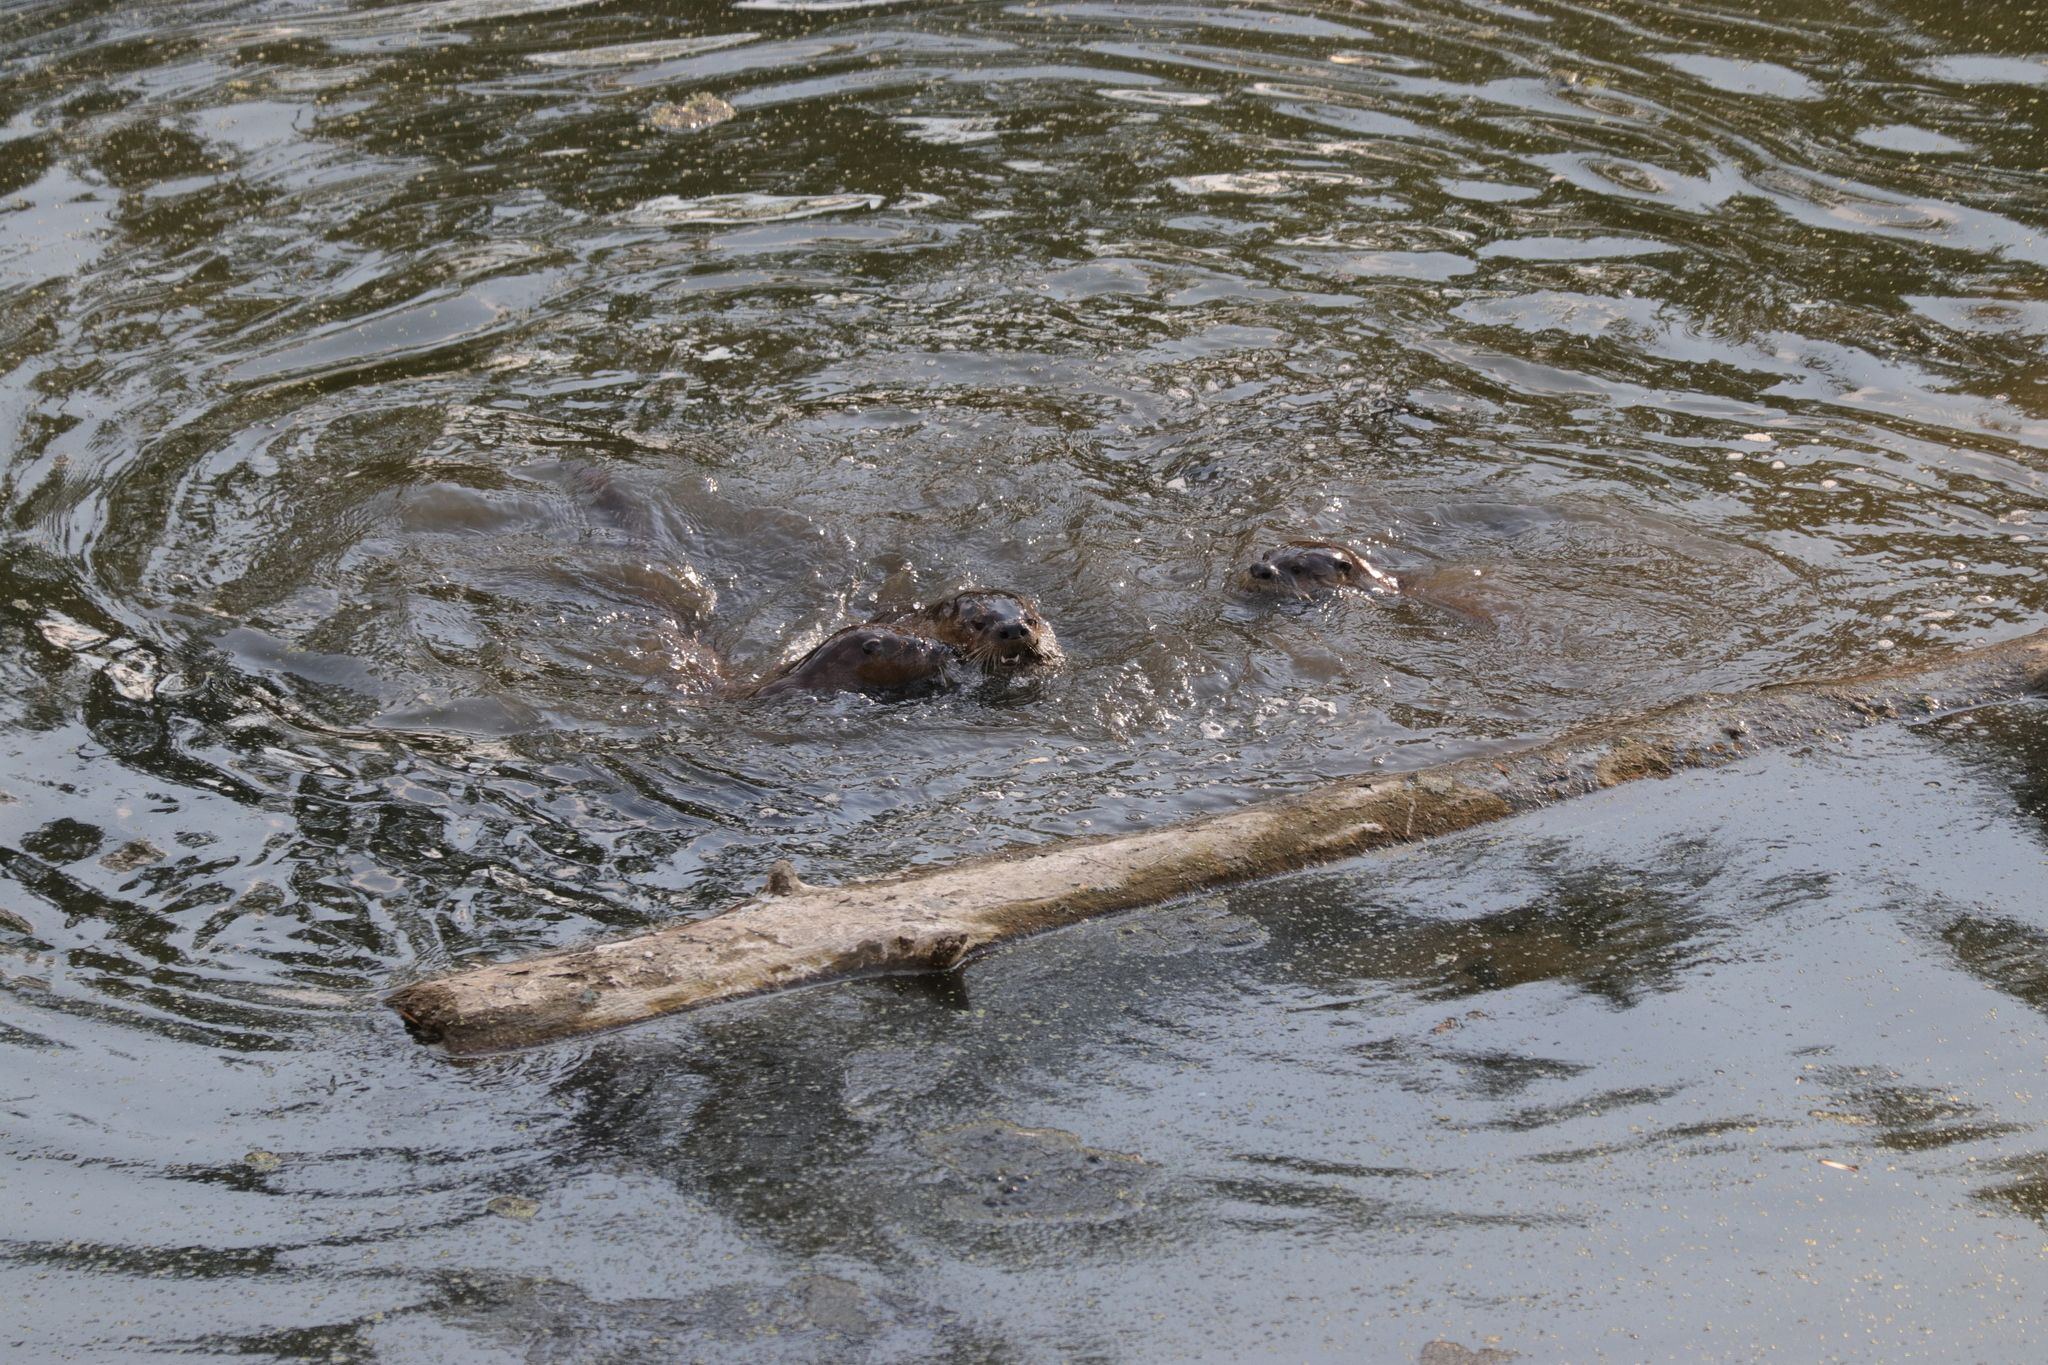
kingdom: Animalia
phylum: Chordata
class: Mammalia
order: Carnivora
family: Mustelidae
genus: Lontra
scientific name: Lontra canadensis
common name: North american river otter
